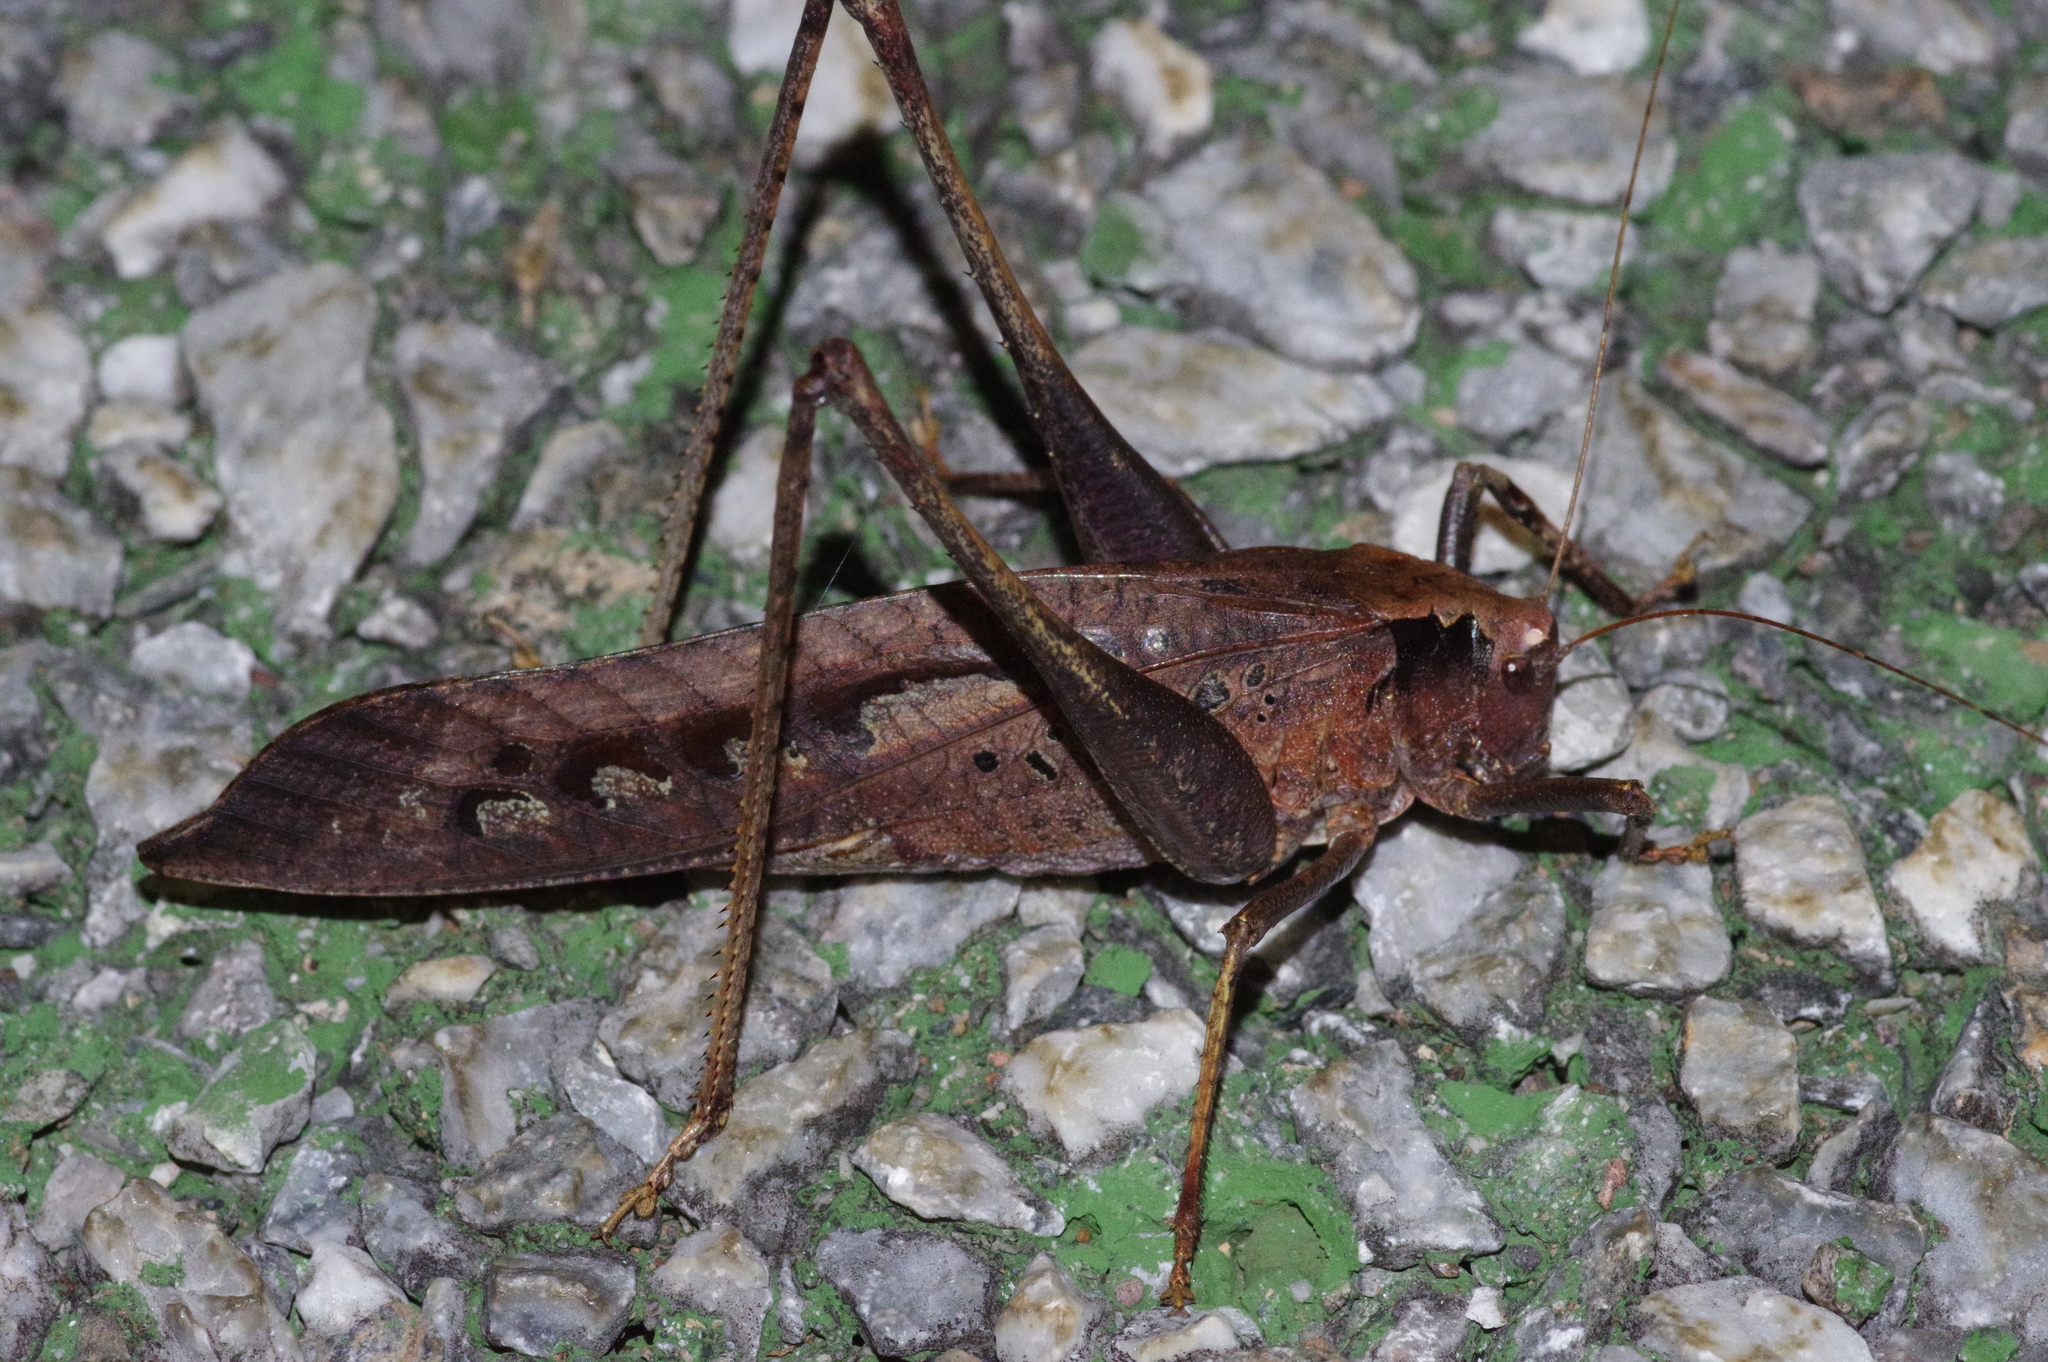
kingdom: Animalia
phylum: Arthropoda
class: Insecta
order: Orthoptera
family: Tettigoniidae
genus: Mecopoda
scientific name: Mecopoda elongata
